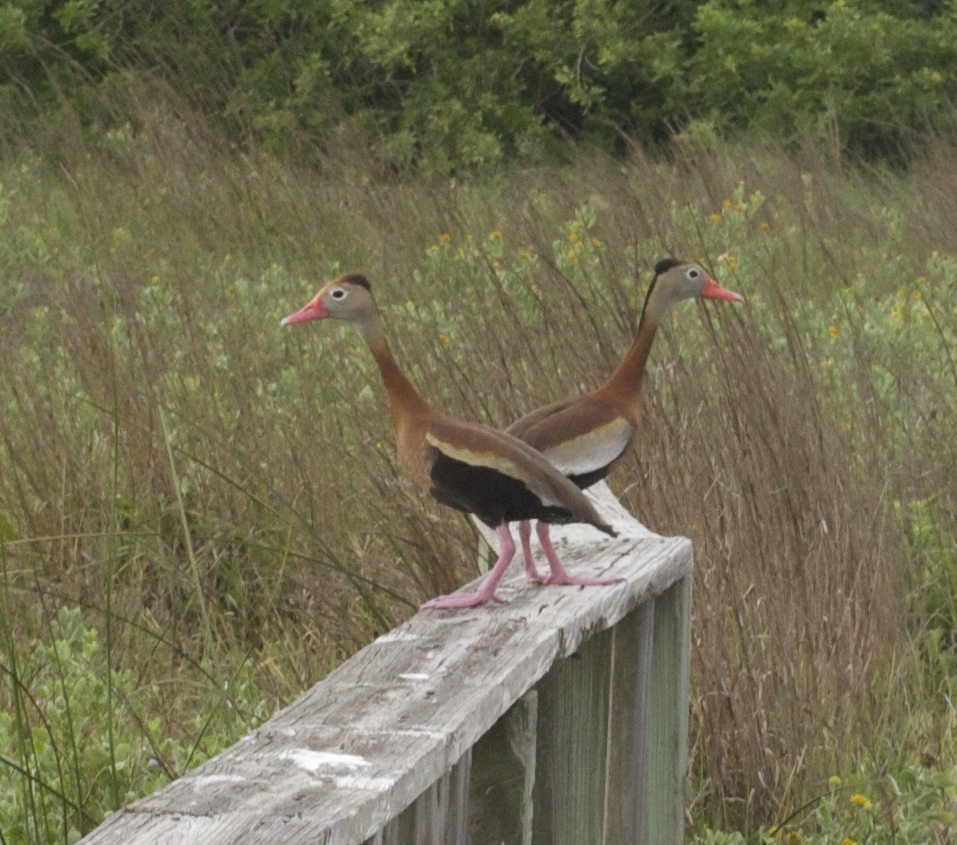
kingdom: Animalia
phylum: Chordata
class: Aves
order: Anseriformes
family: Anatidae
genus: Dendrocygna
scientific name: Dendrocygna autumnalis
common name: Black-bellied whistling duck
